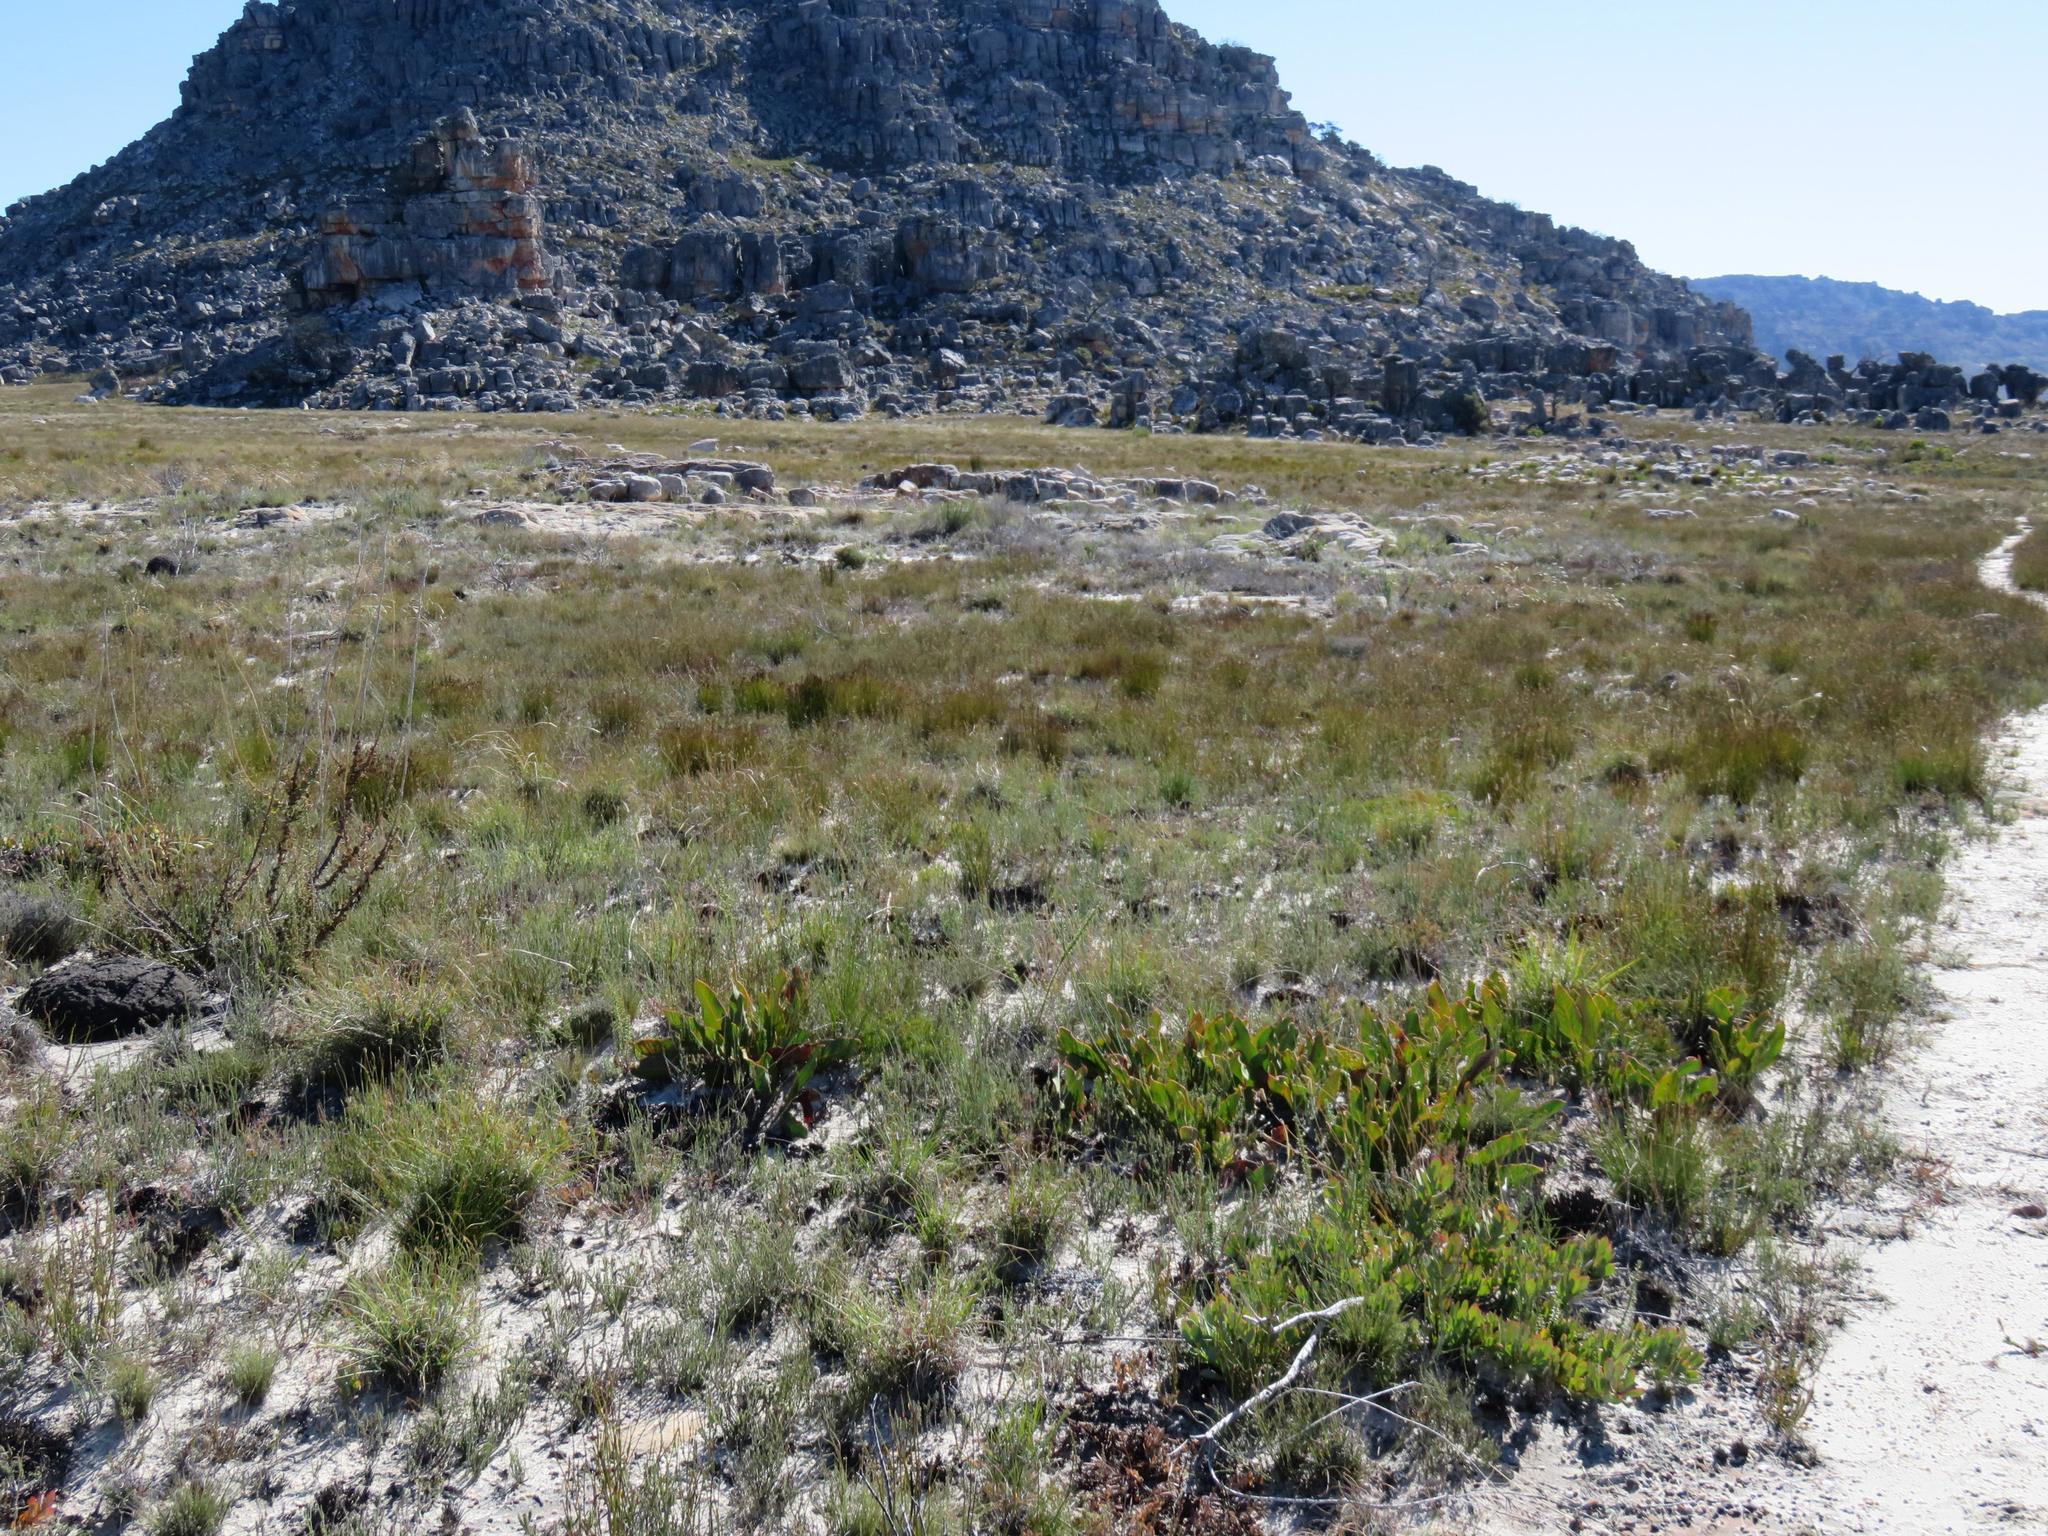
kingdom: Plantae
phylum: Tracheophyta
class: Magnoliopsida
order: Proteales
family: Proteaceae
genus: Protea
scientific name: Protea scolopendriifolia
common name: Harts-tongue-fern sugarbush
